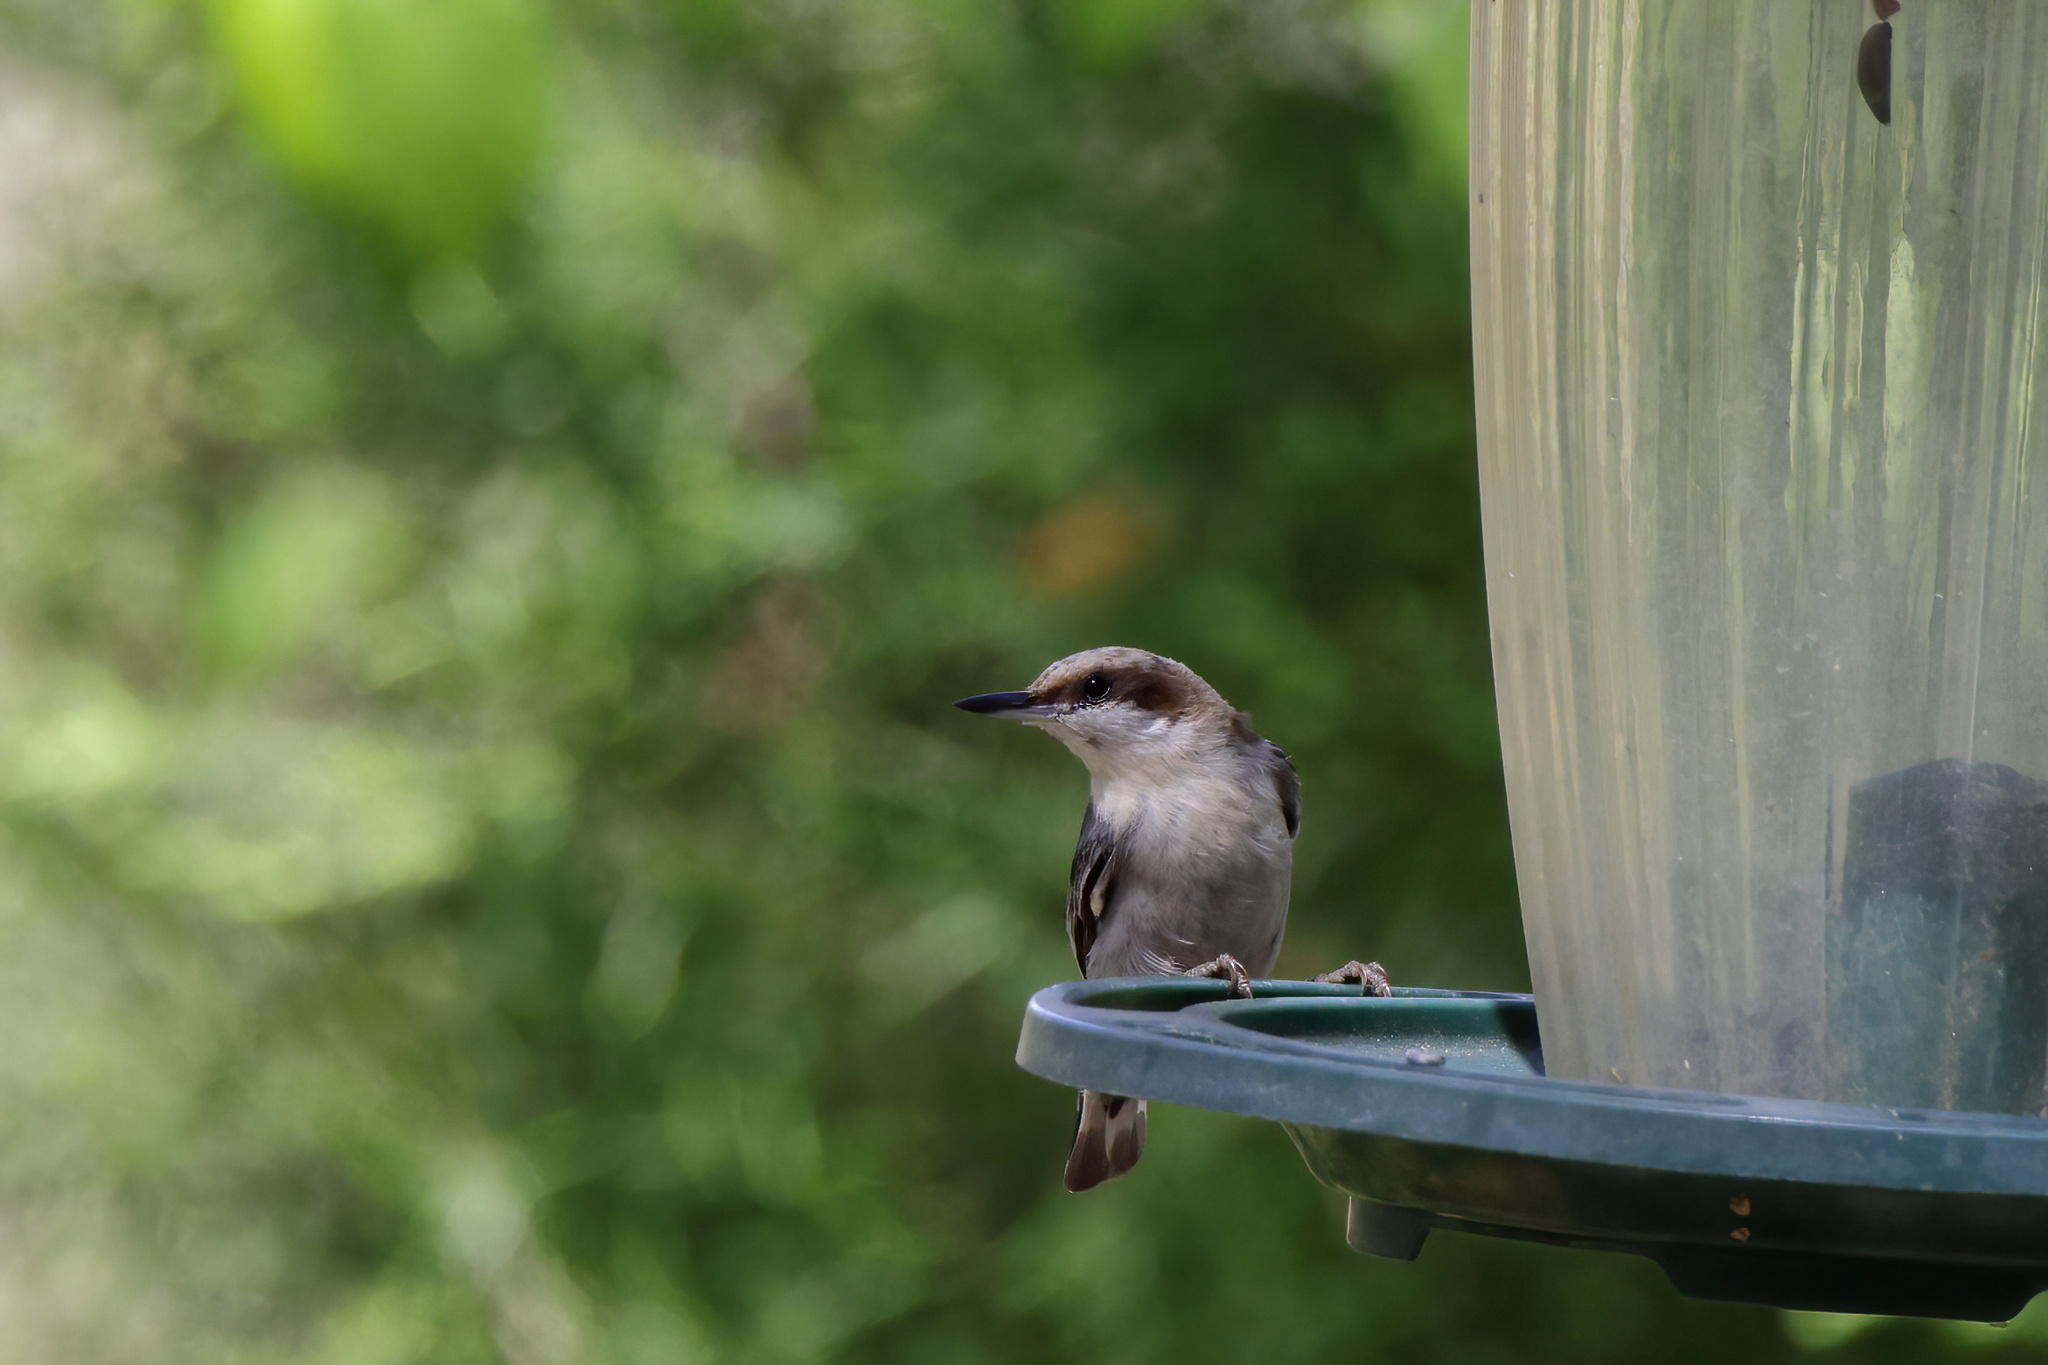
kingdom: Animalia
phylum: Chordata
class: Aves
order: Passeriformes
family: Sittidae
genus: Sitta
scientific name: Sitta pusilla
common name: Brown-headed nuthatch
